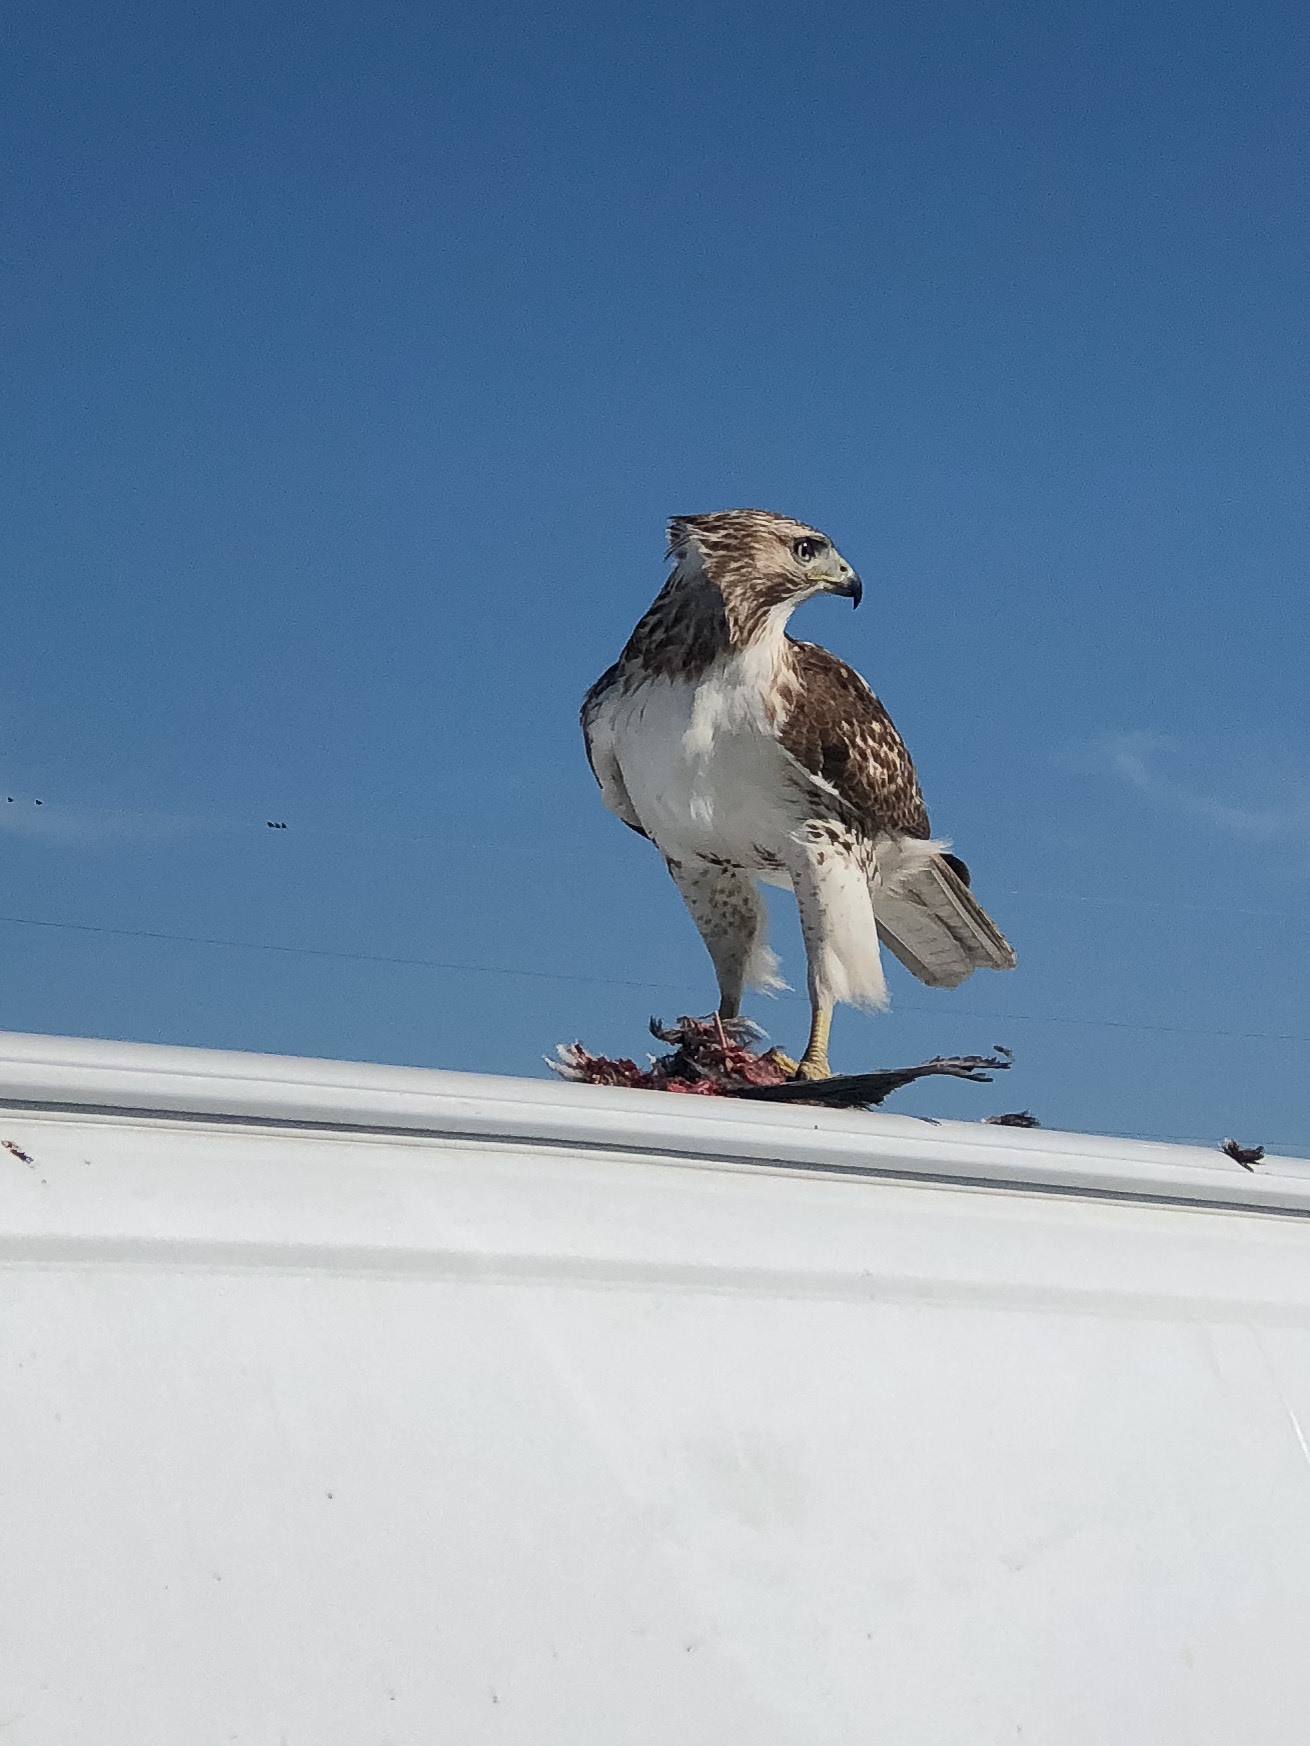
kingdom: Animalia
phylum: Chordata
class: Aves
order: Accipitriformes
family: Accipitridae
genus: Buteo
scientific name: Buteo jamaicensis
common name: Red-tailed hawk
